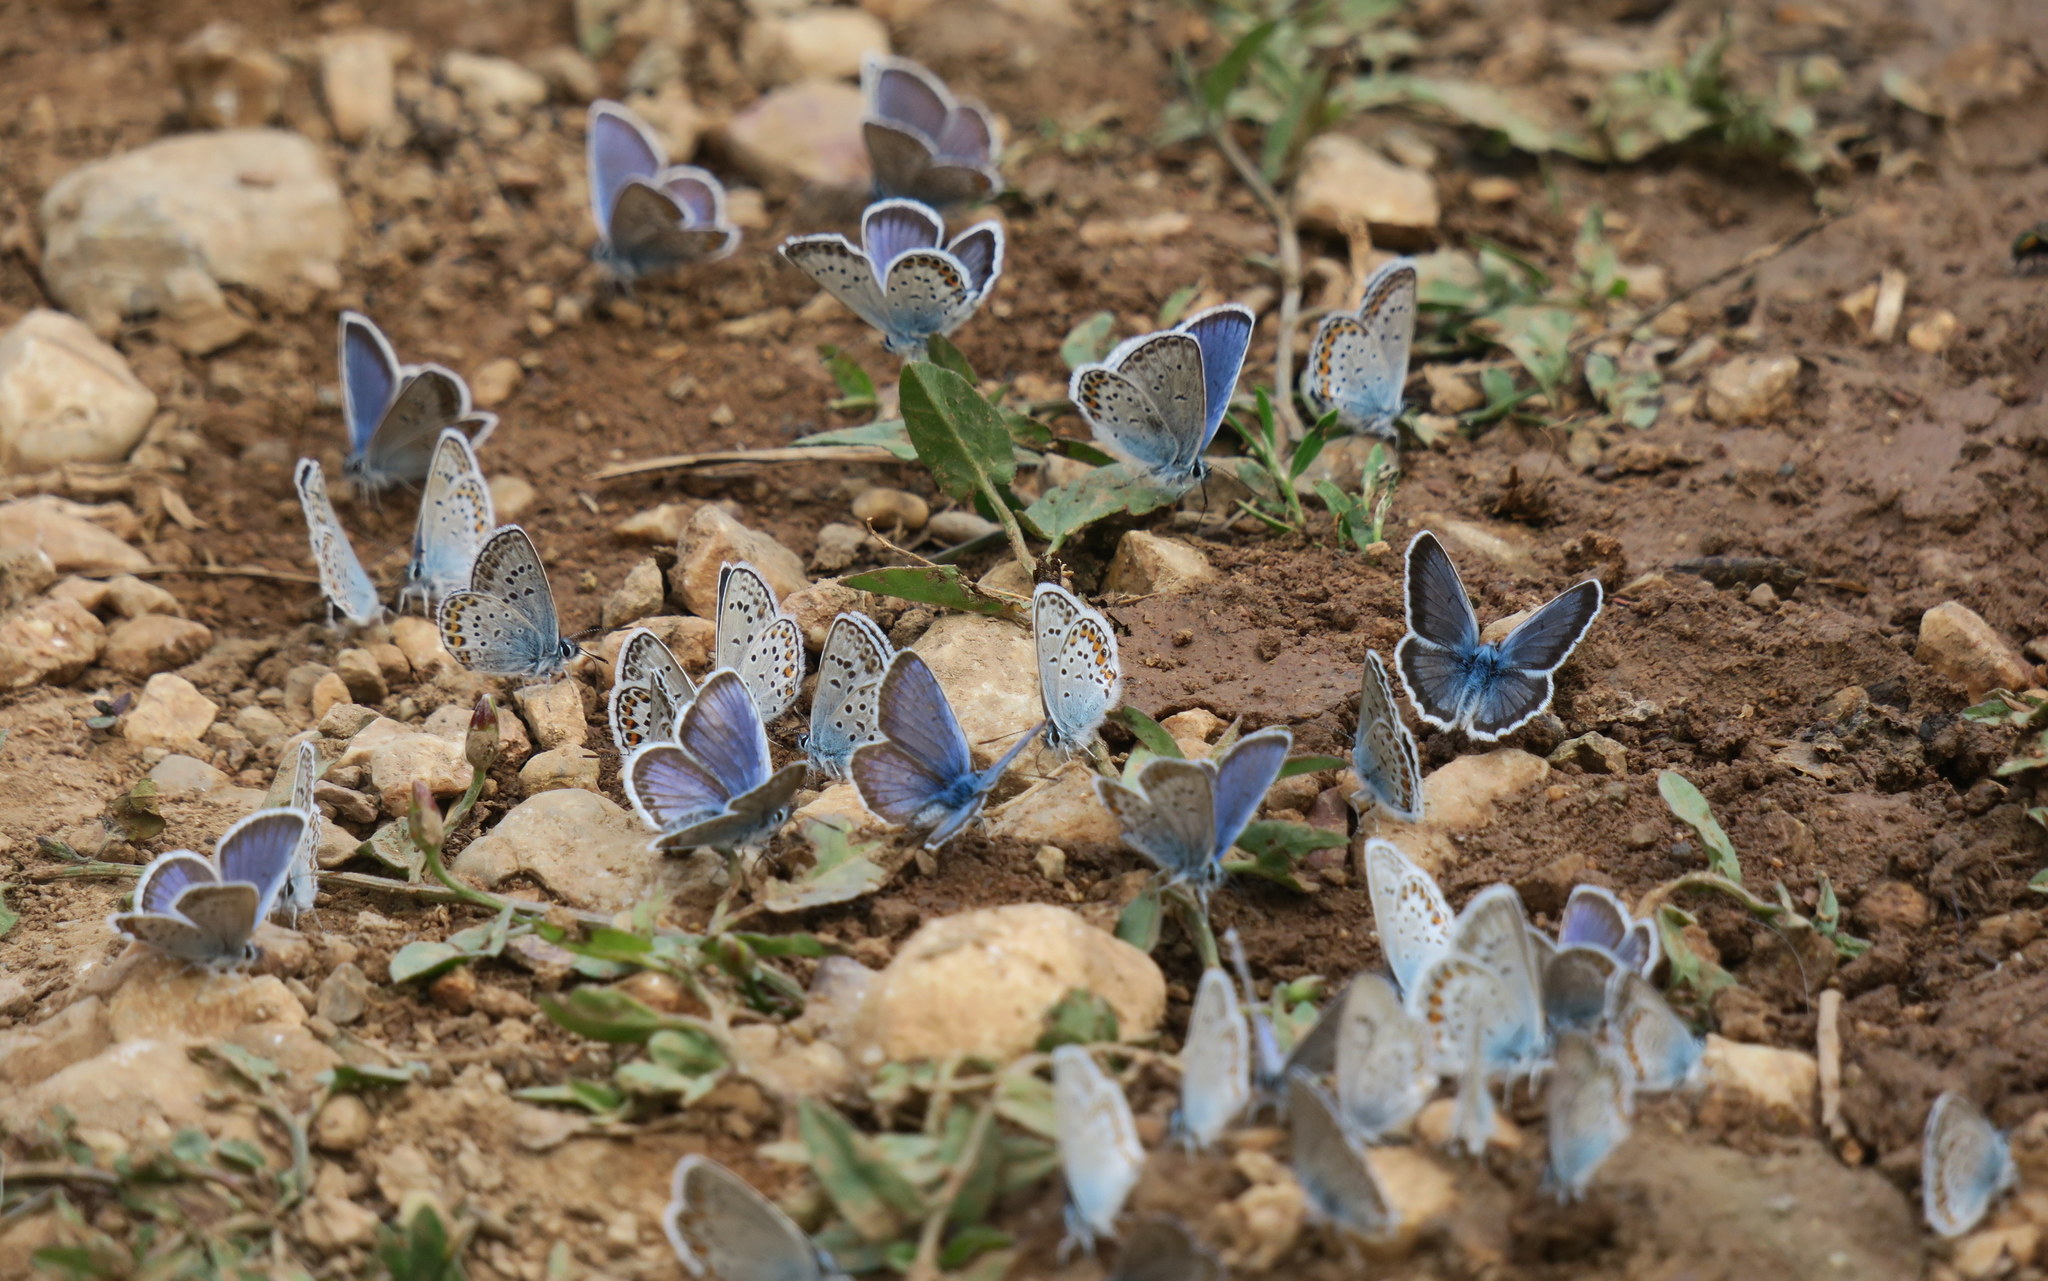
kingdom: Animalia
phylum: Arthropoda
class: Insecta
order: Lepidoptera
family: Lycaenidae
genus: Plebejus
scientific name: Plebejus argus
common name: Silver-studded blue
